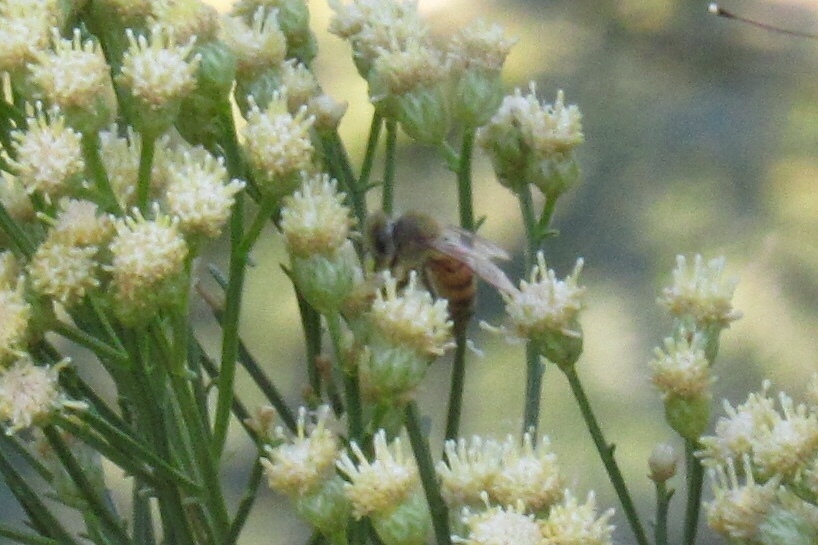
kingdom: Animalia
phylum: Arthropoda
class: Insecta
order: Hymenoptera
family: Apidae
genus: Apis
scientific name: Apis mellifera
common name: Honey bee
